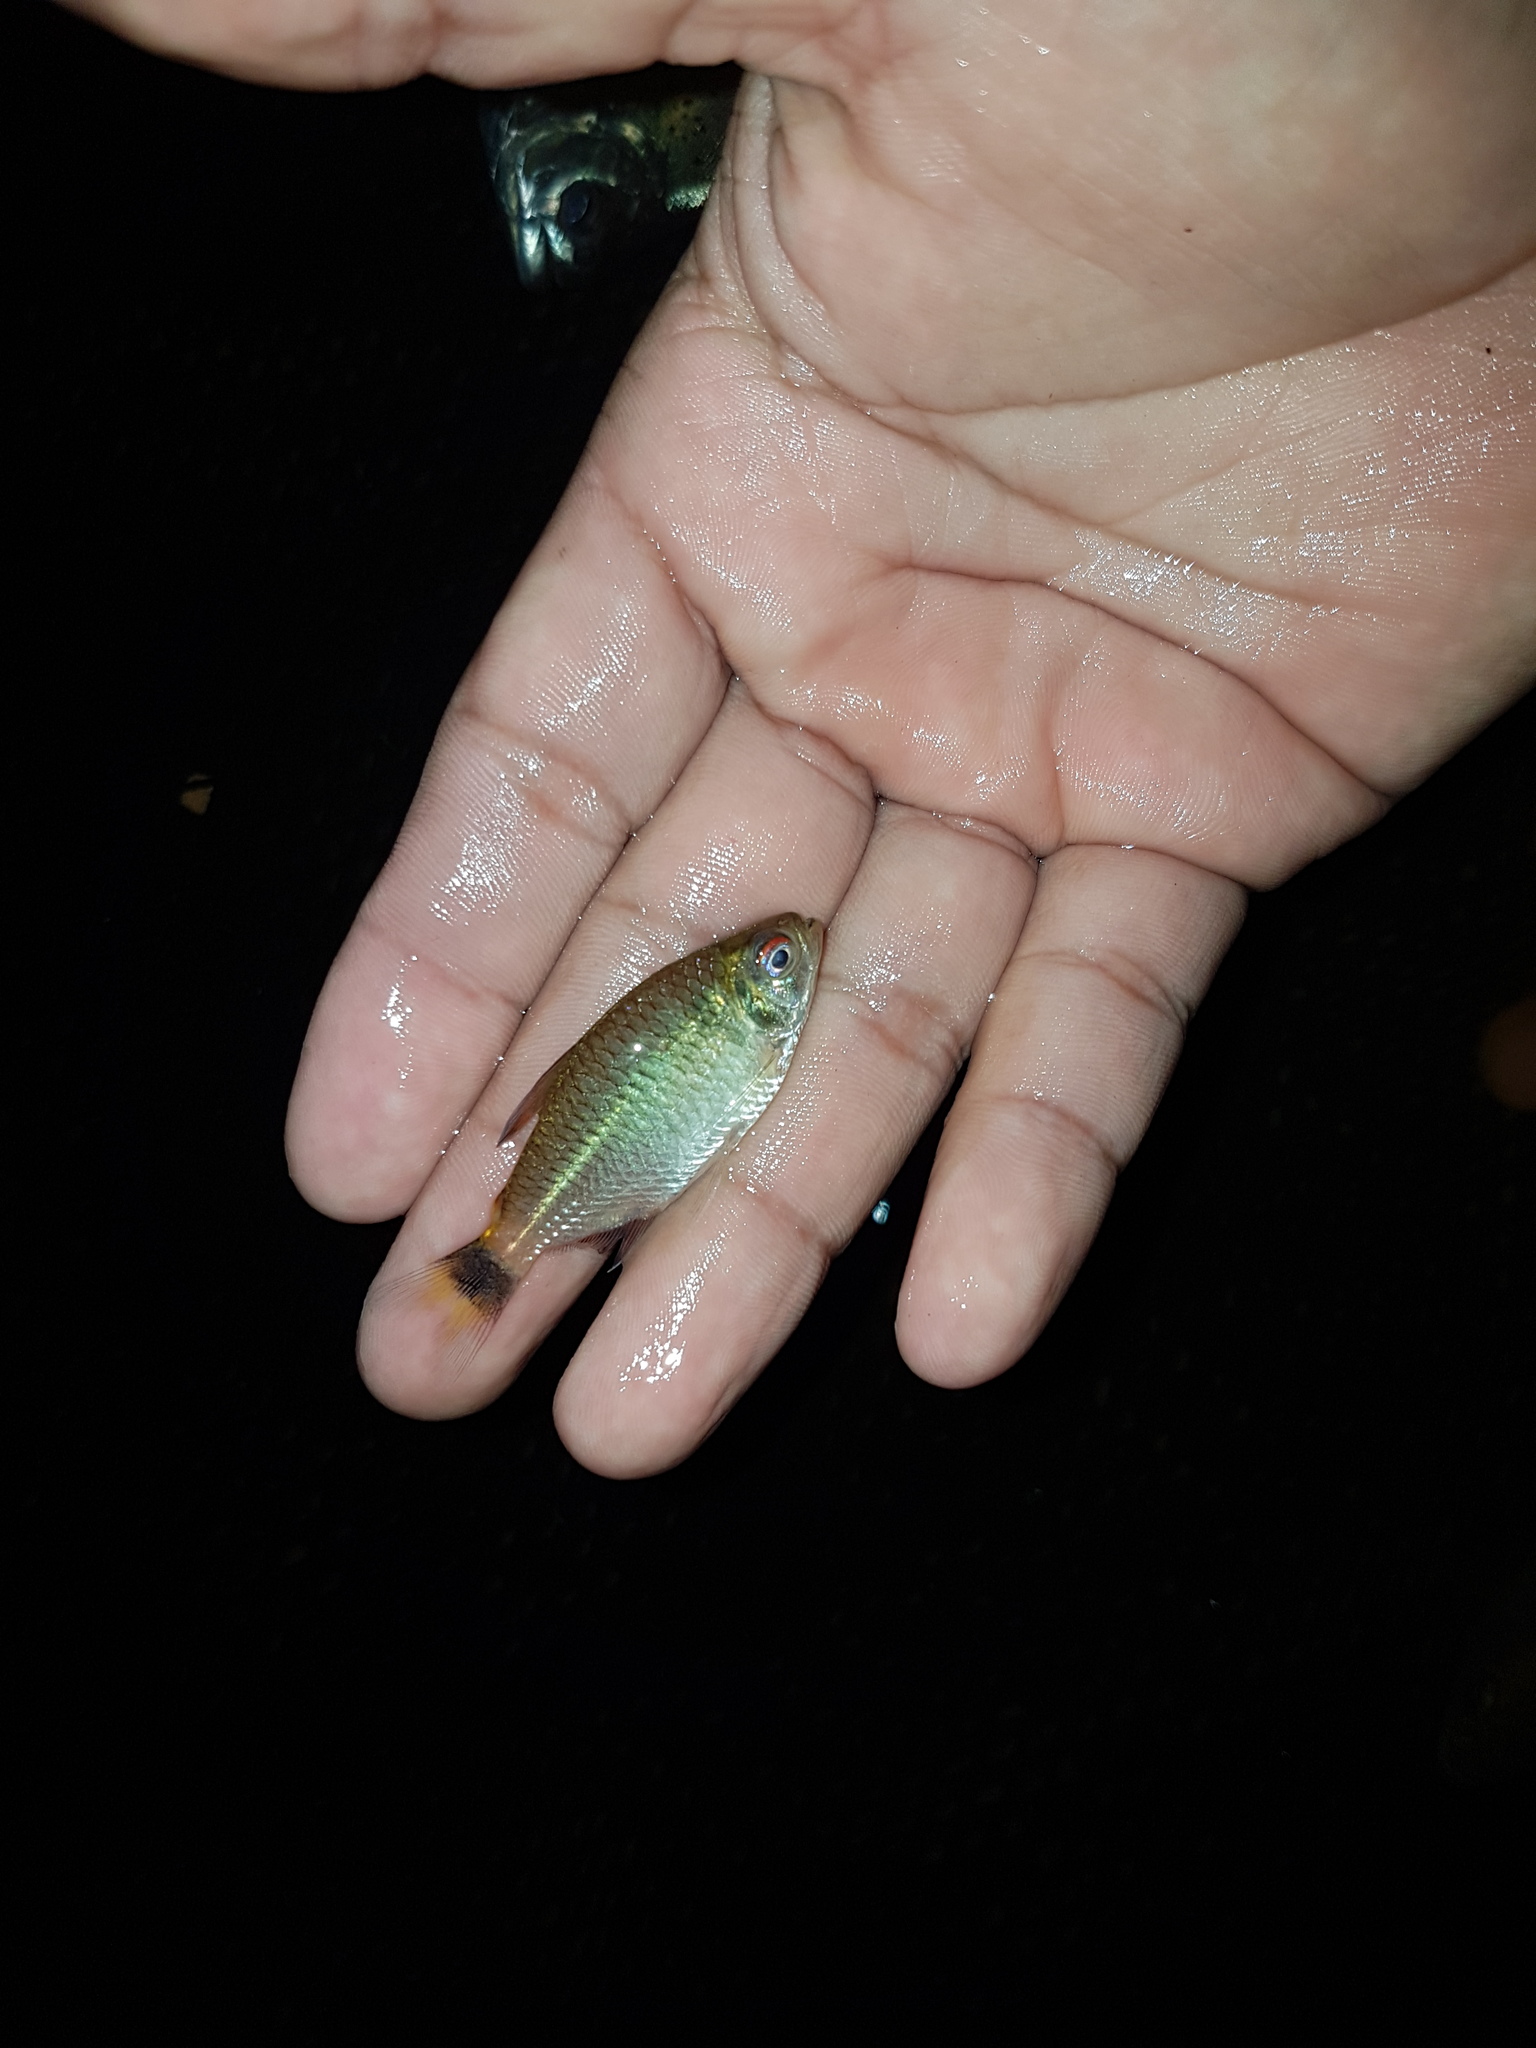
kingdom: Animalia
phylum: Chordata
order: Characiformes
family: Characidae
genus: Moenkhausia
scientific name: Moenkhausia oligolepis
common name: Glass tetra
